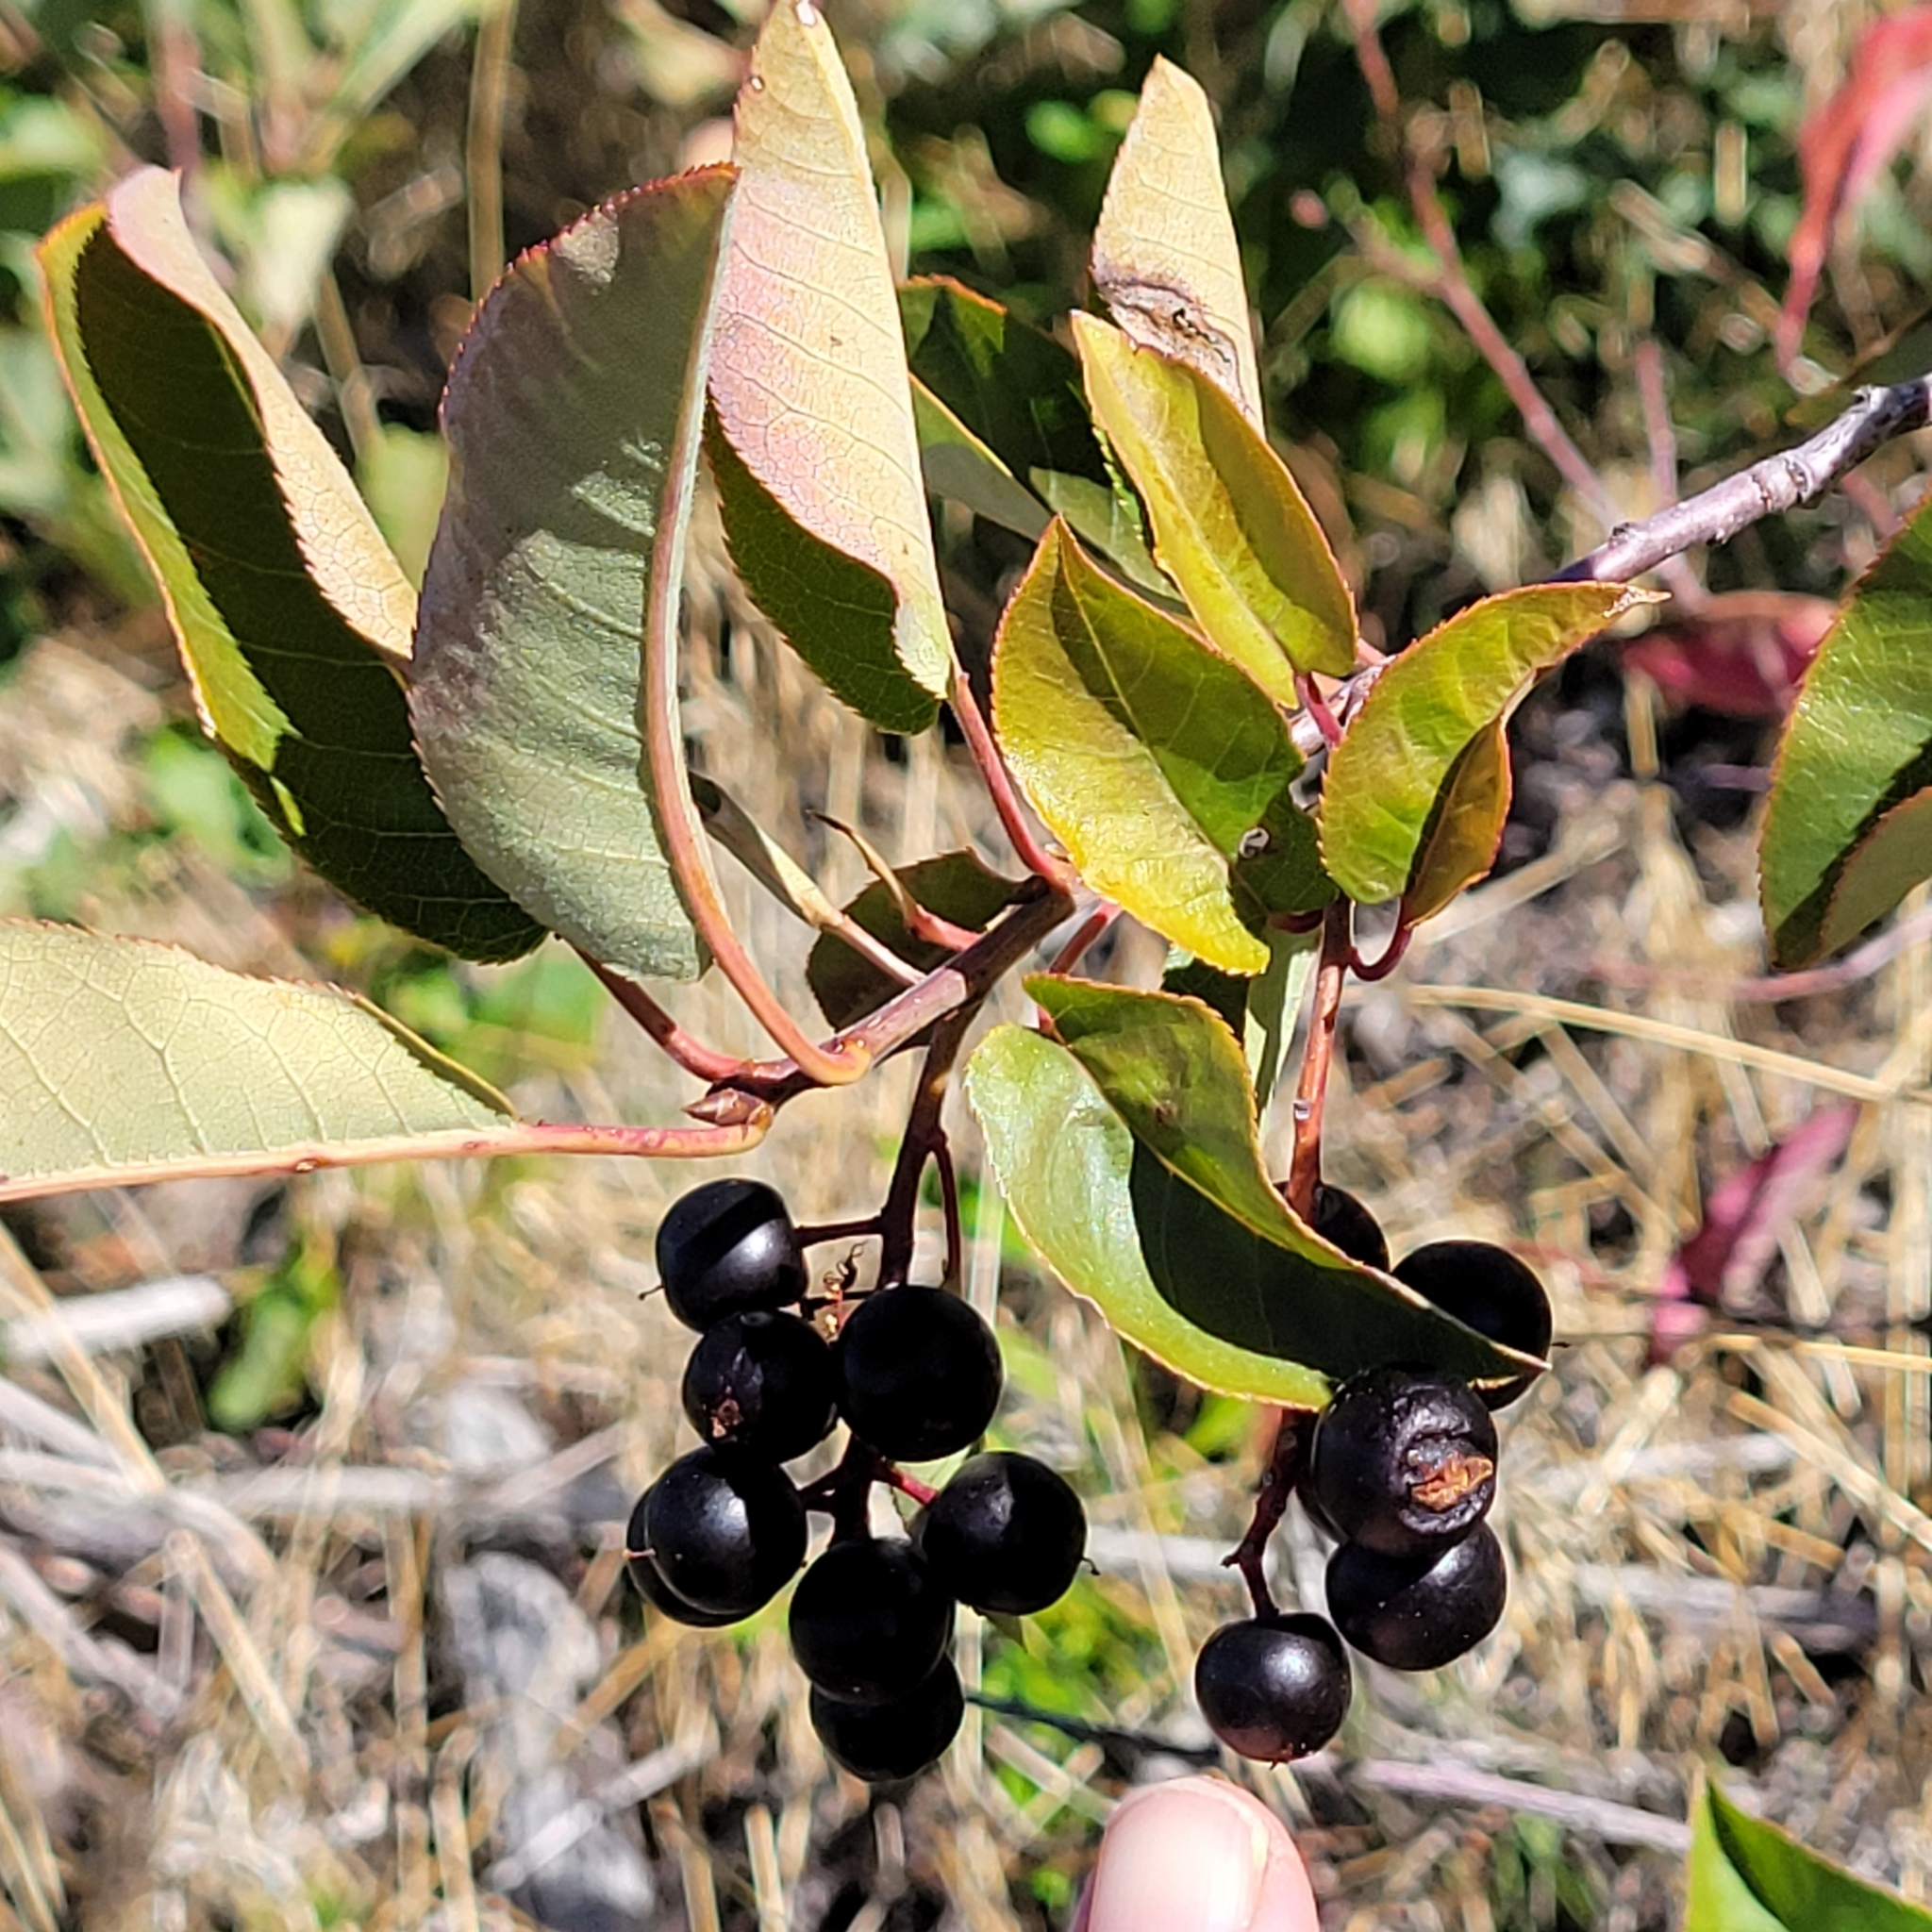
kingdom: Plantae
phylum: Tracheophyta
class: Magnoliopsida
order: Rosales
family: Rosaceae
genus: Prunus
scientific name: Prunus virginiana
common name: Chokecherry
